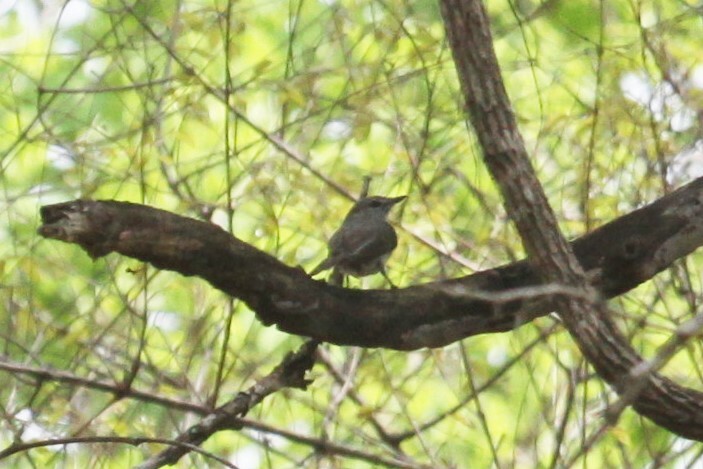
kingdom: Animalia
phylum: Chordata
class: Aves
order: Passeriformes
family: Muscicapidae
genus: Muscicapa
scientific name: Muscicapa caerulescens
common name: Ashy flycatcher
